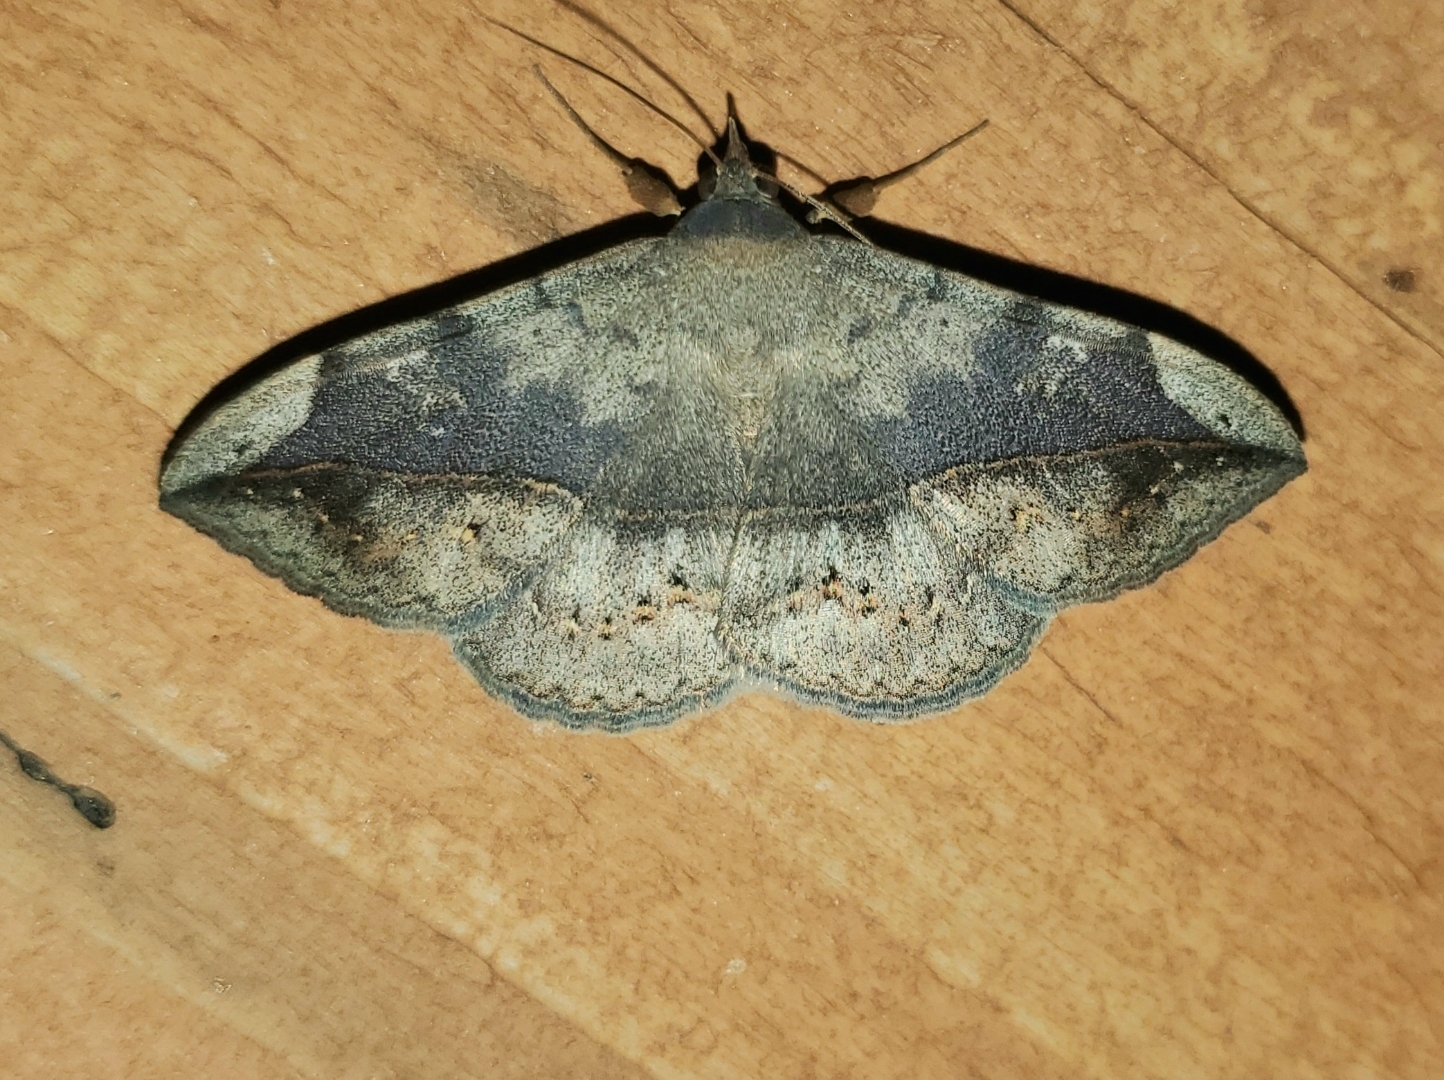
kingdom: Animalia
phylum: Arthropoda
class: Insecta
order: Lepidoptera
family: Erebidae
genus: Anticarsia
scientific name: Anticarsia gemmatalis
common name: Cutworm moth
